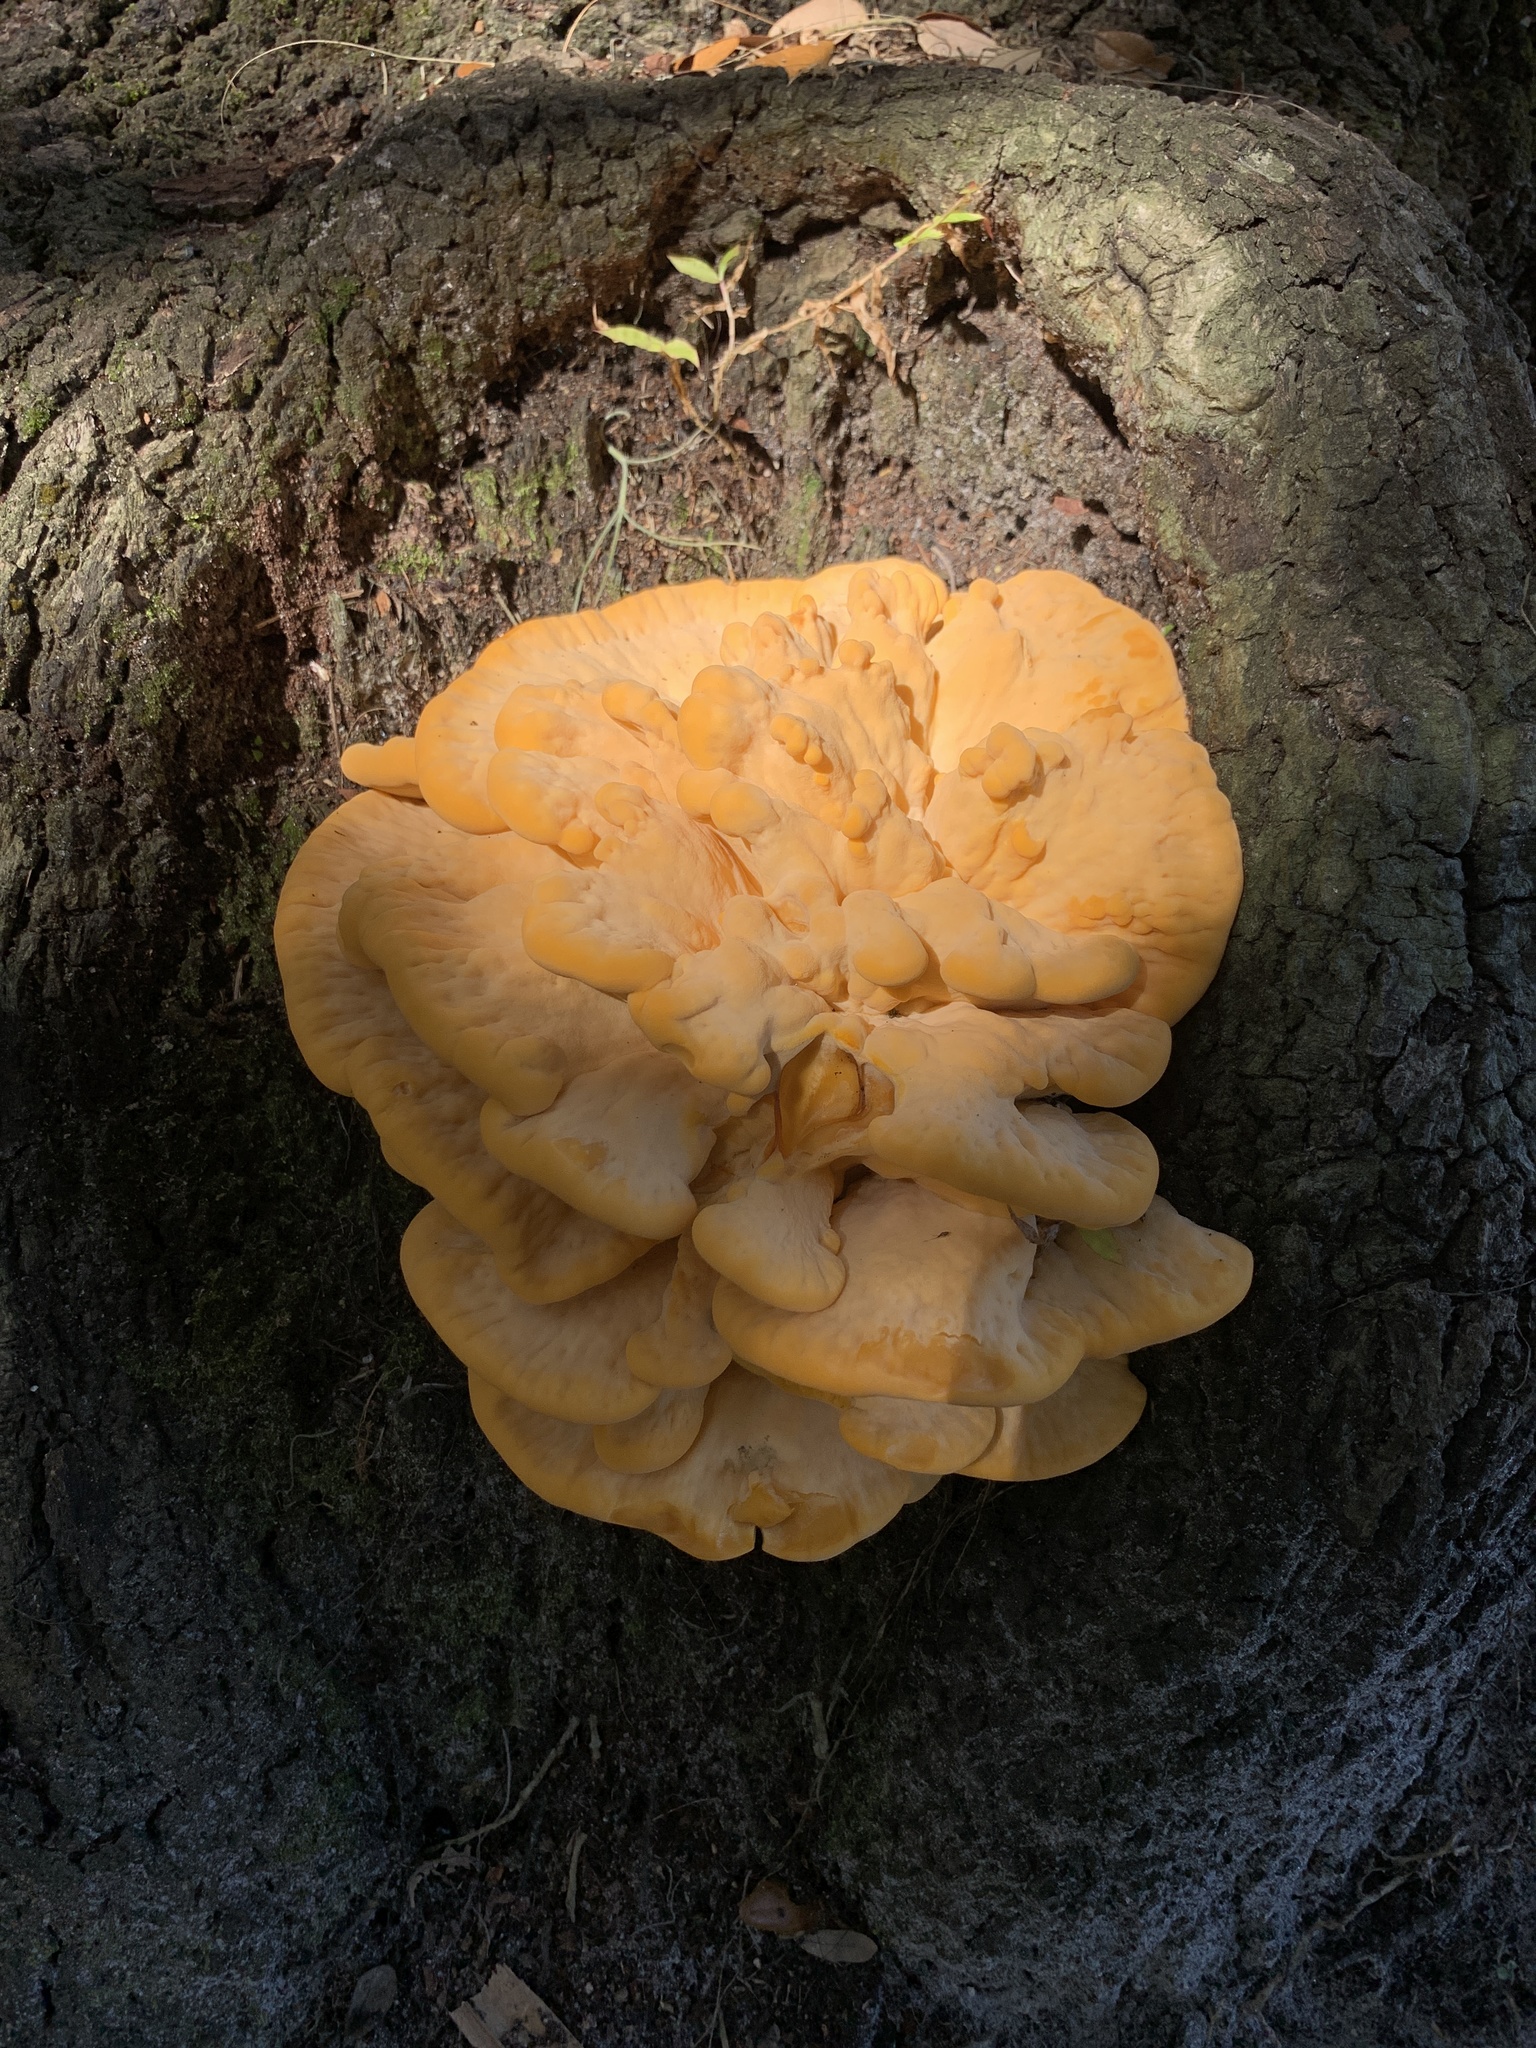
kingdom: Fungi
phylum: Basidiomycota
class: Agaricomycetes
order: Polyporales
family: Laetiporaceae
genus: Laetiporus
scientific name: Laetiporus gilbertsonii
